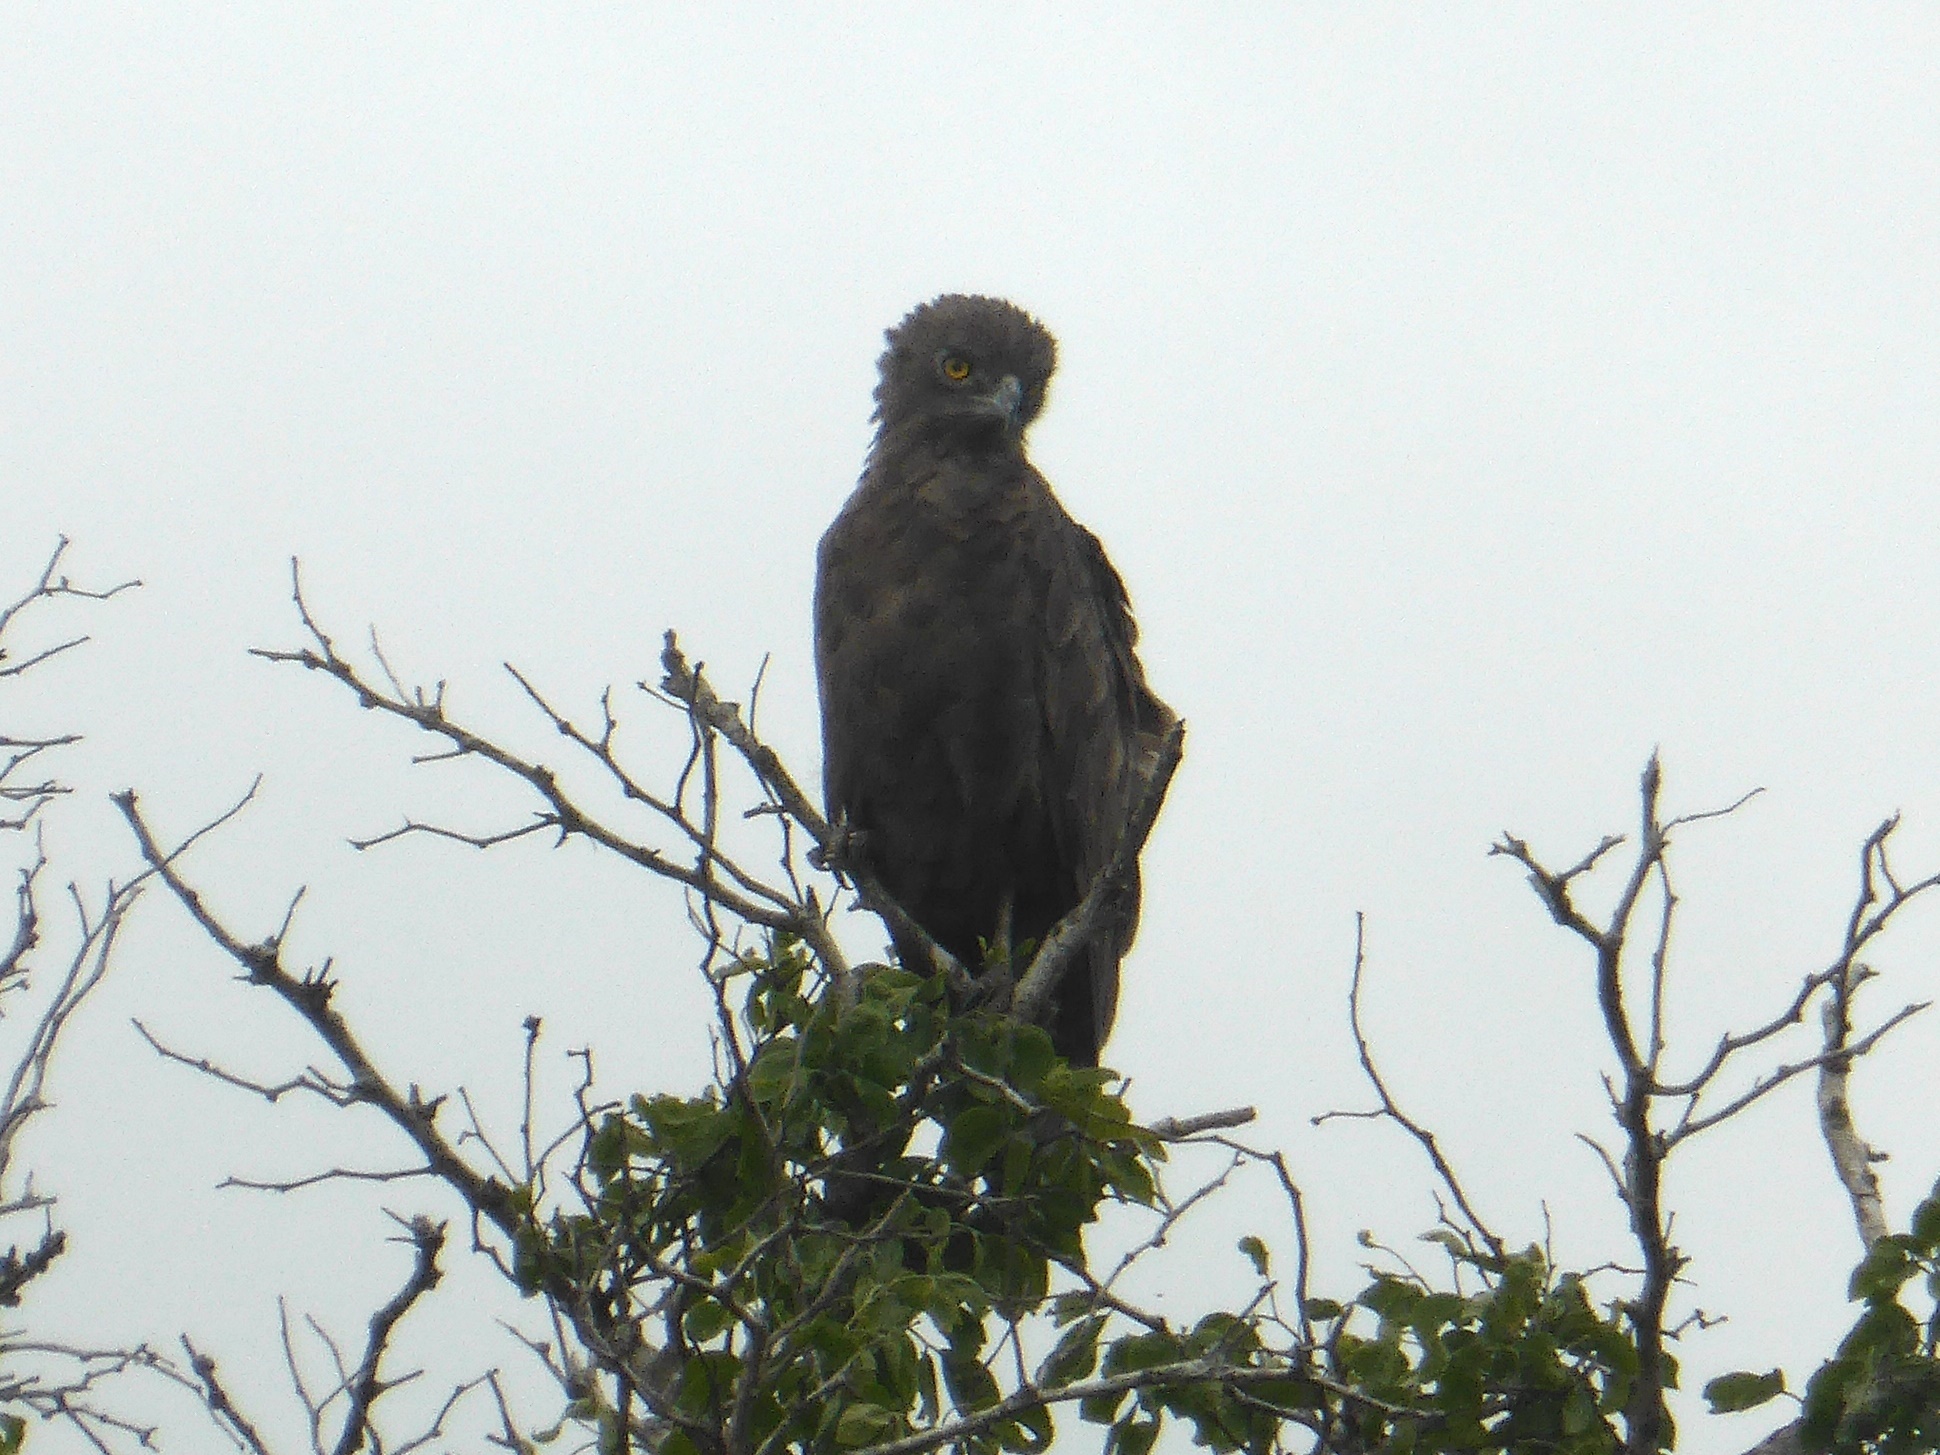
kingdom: Animalia
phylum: Chordata
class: Aves
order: Accipitriformes
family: Accipitridae
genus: Circaetus
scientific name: Circaetus cinereus
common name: Brown snake eagle
